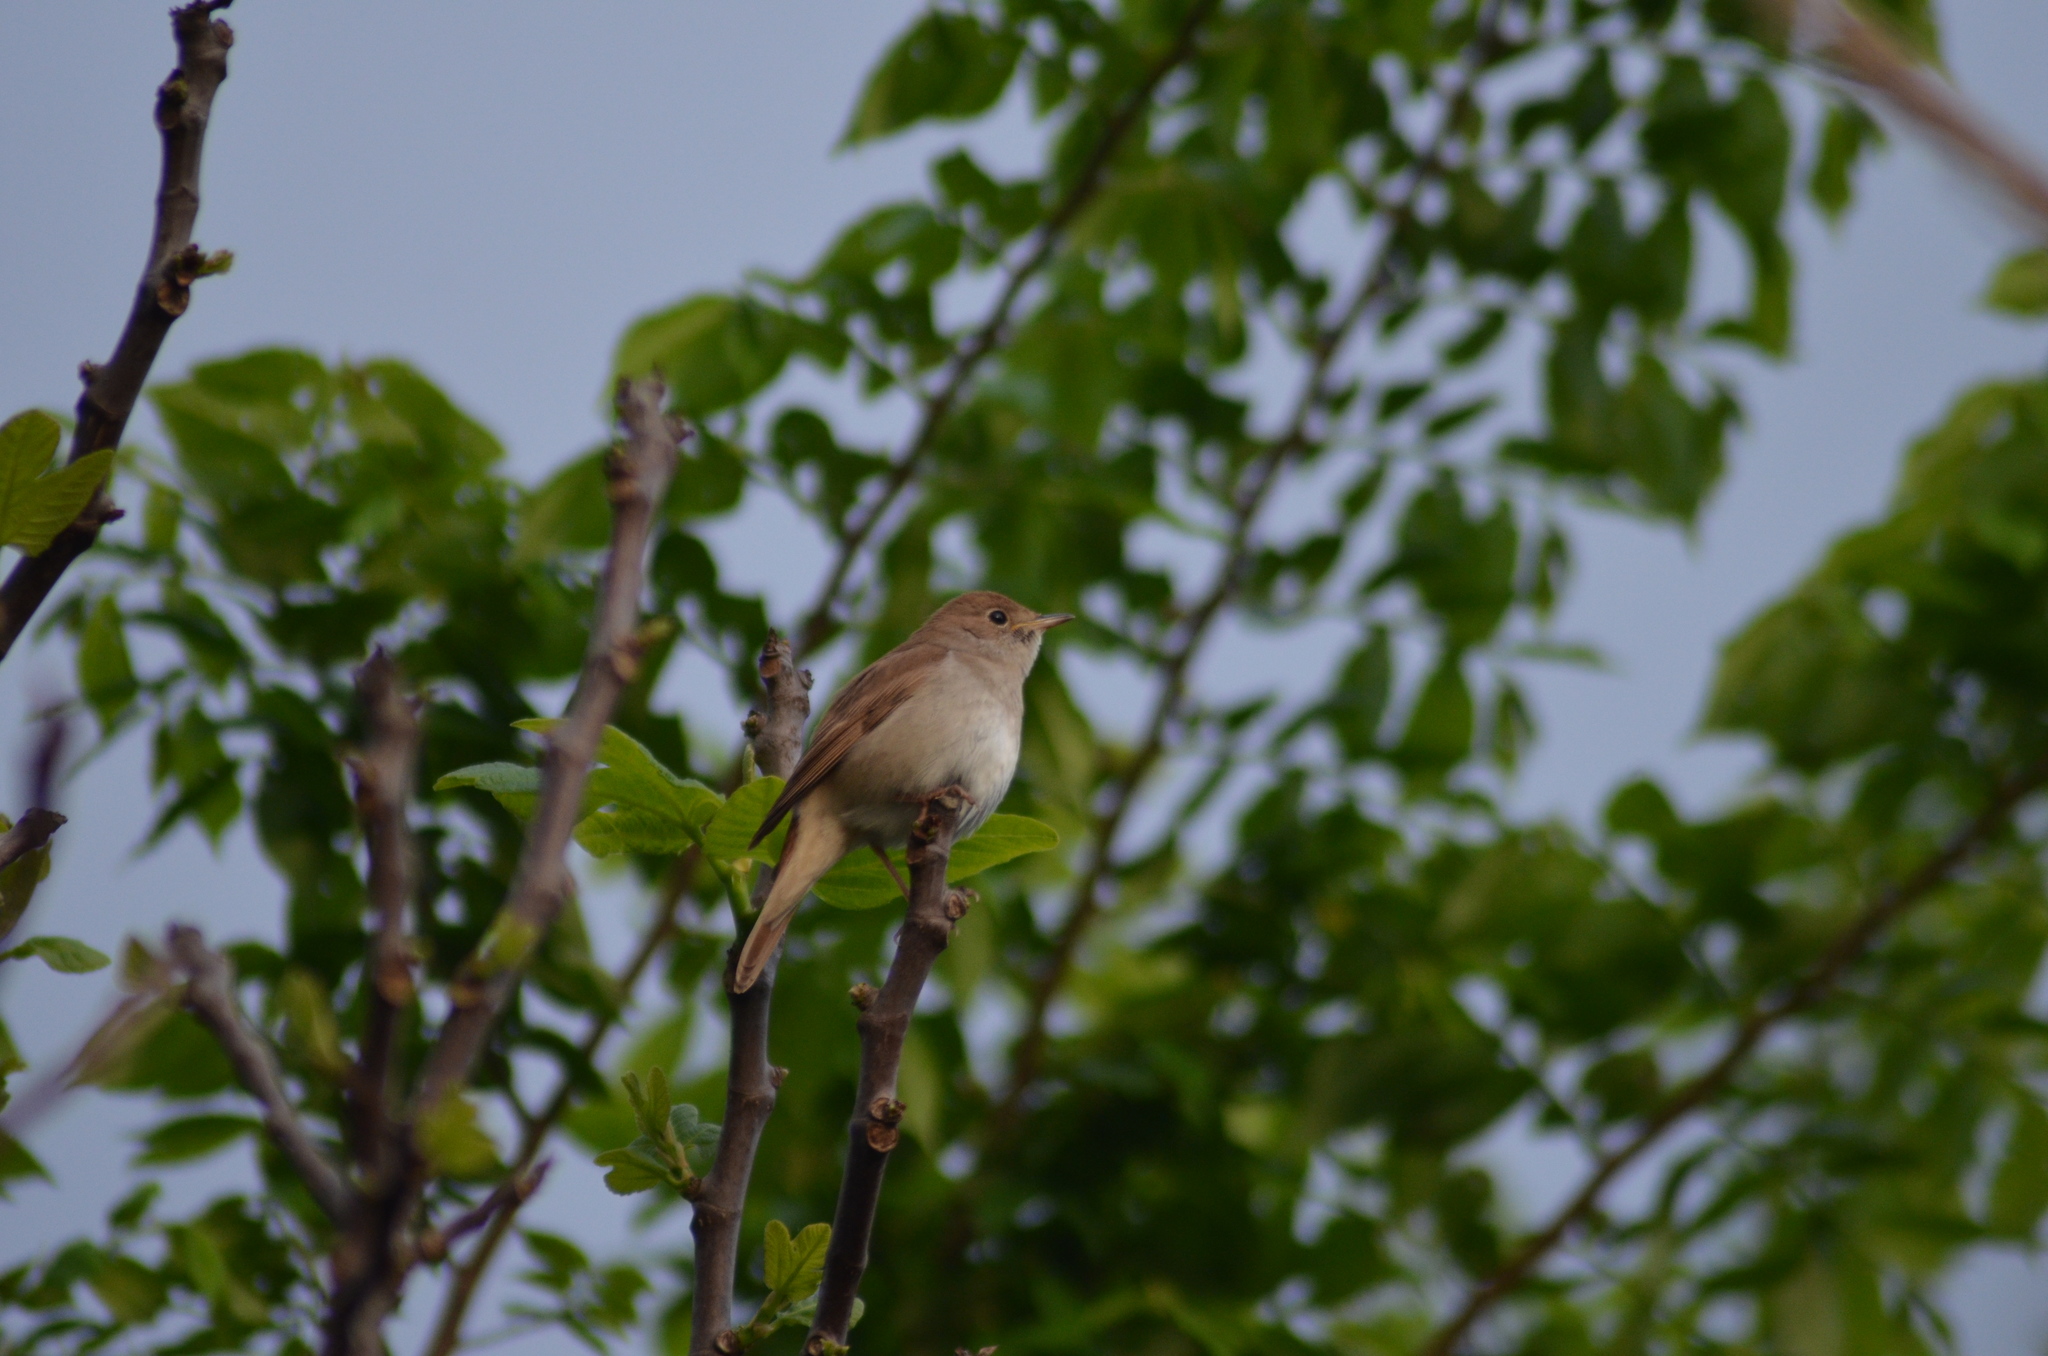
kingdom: Animalia
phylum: Chordata
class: Aves
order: Passeriformes
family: Muscicapidae
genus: Luscinia
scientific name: Luscinia megarhynchos
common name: Common nightingale
